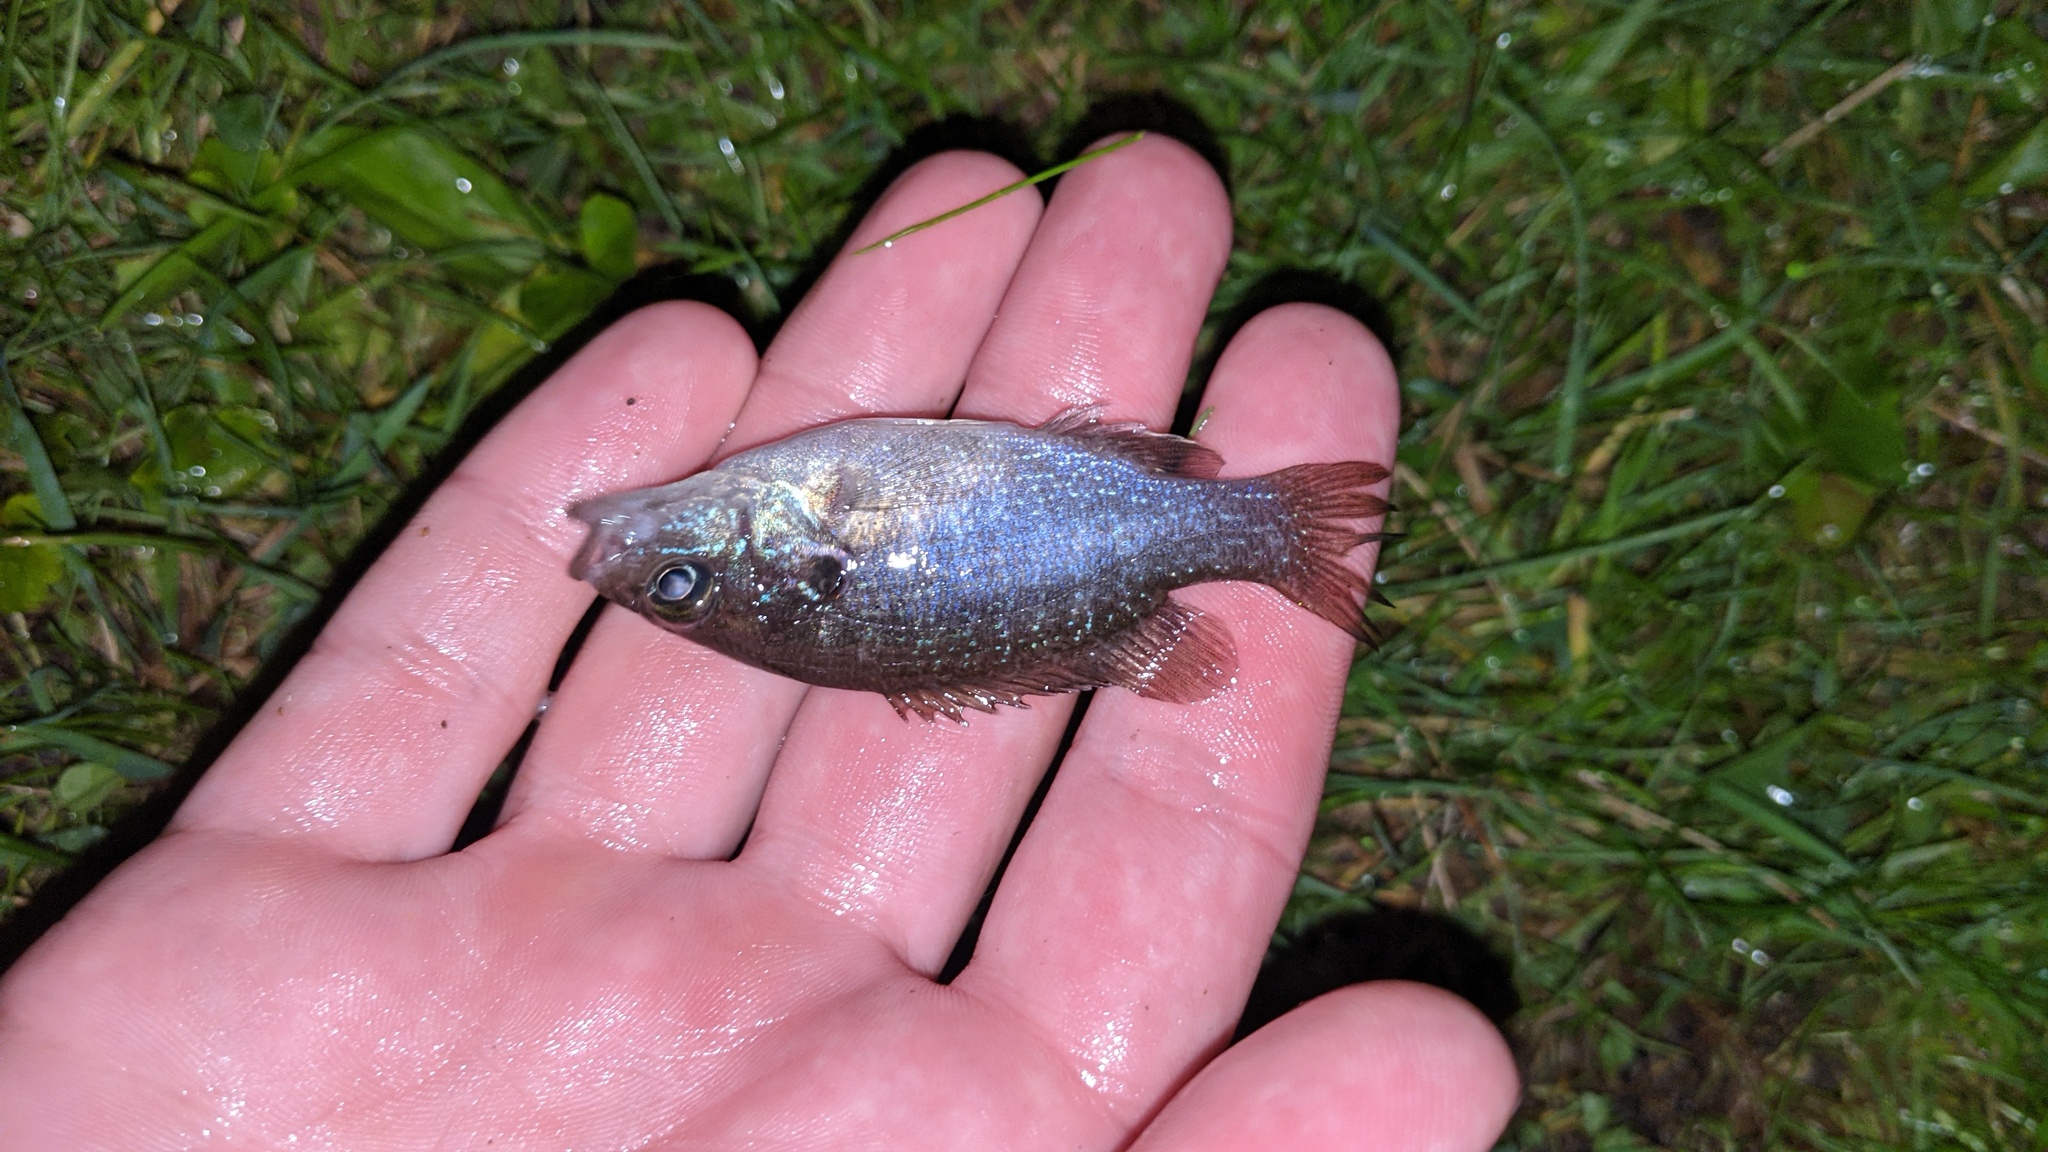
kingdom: Animalia
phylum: Chordata
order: Perciformes
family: Centrarchidae
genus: Lepomis
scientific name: Lepomis cyanellus
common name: Green sunfish
